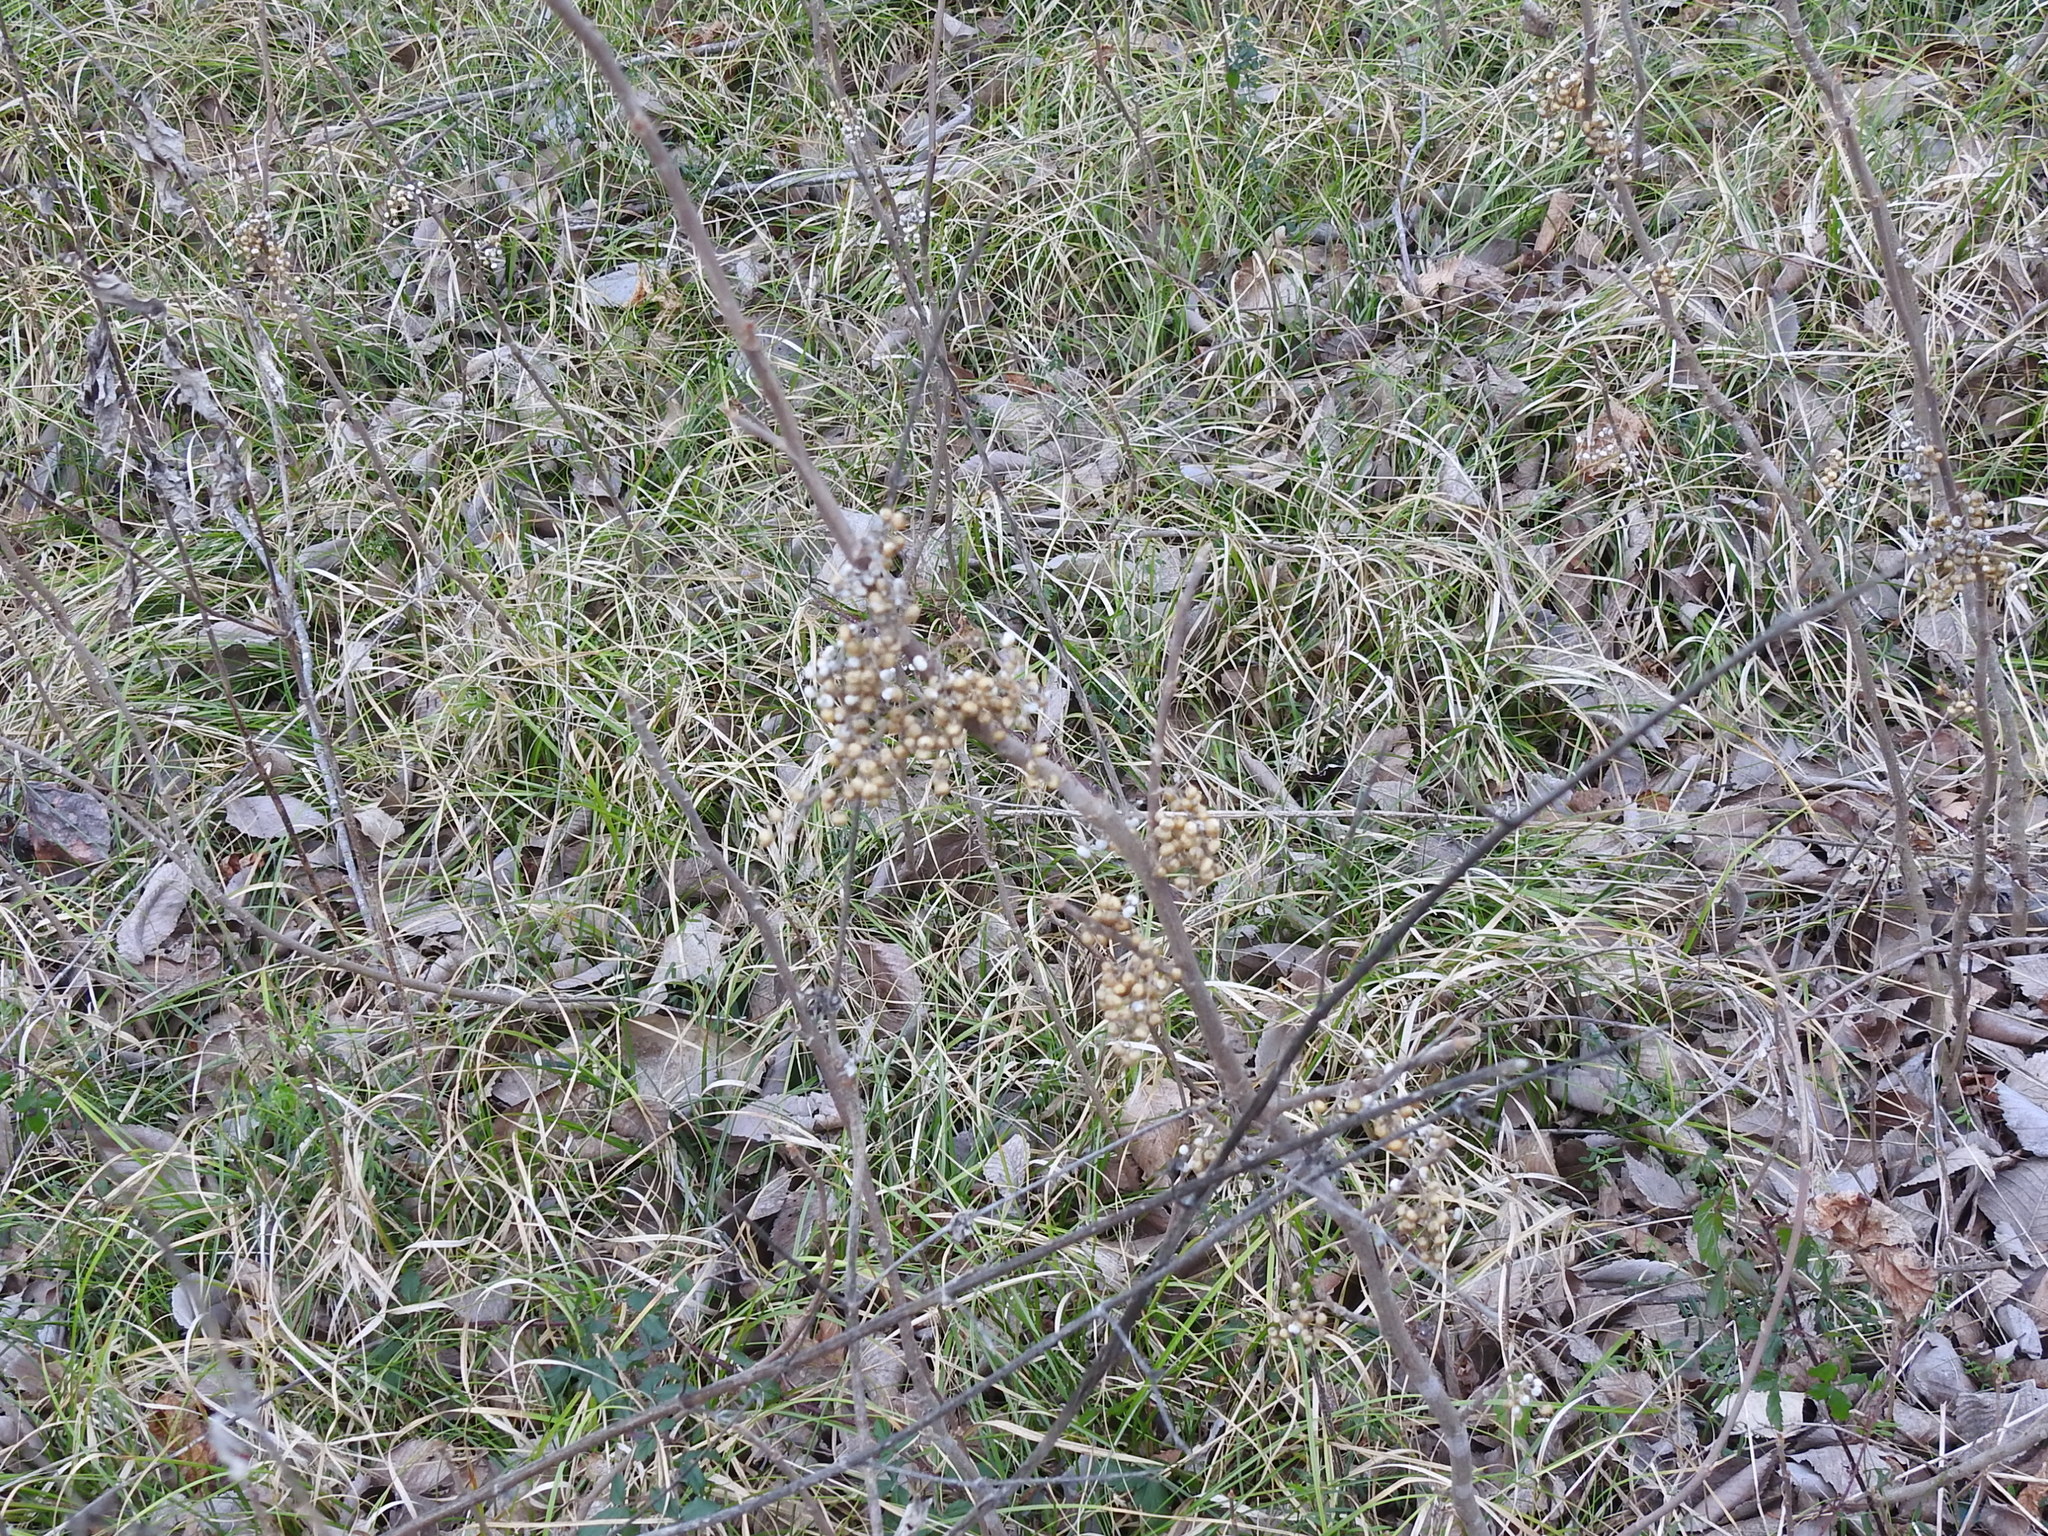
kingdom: Plantae
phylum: Tracheophyta
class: Magnoliopsida
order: Sapindales
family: Anacardiaceae
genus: Toxicodendron
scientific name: Toxicodendron radicans
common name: Poison ivy
